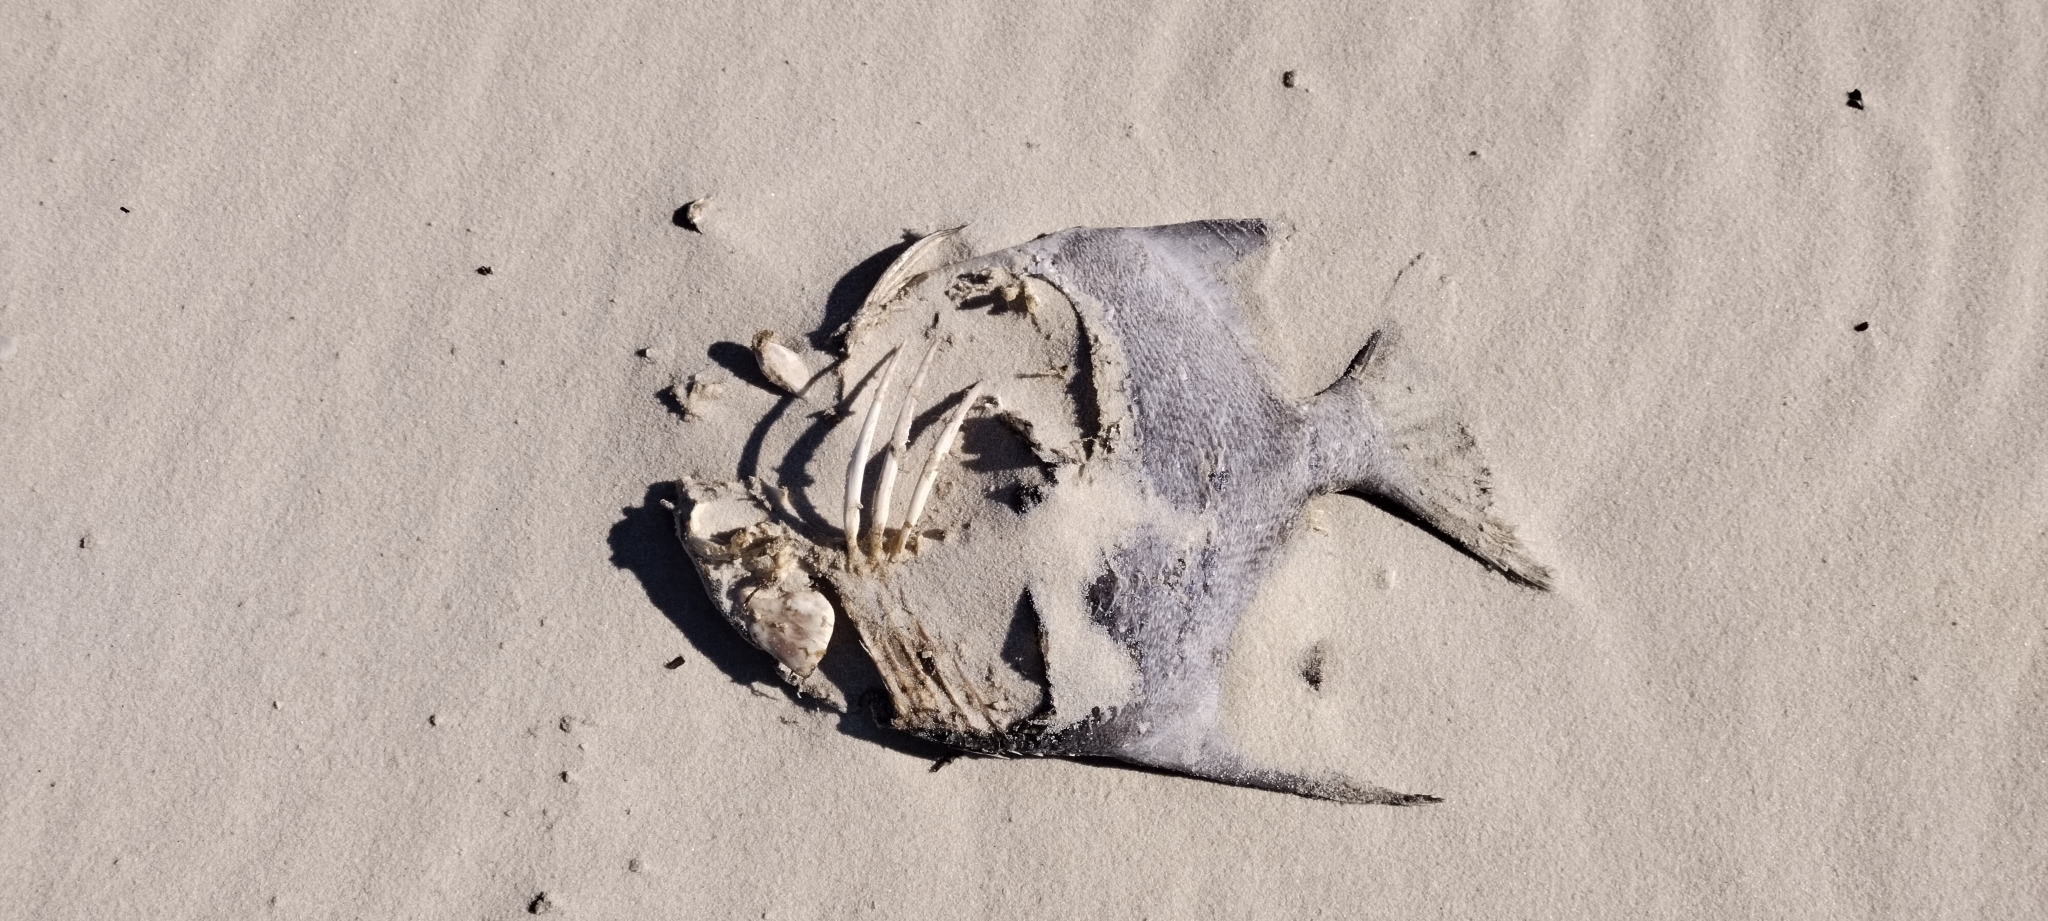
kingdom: Animalia
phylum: Chordata
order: Perciformes
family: Ephippidae
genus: Chaetodipterus
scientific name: Chaetodipterus faber
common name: Ocean cobbler
